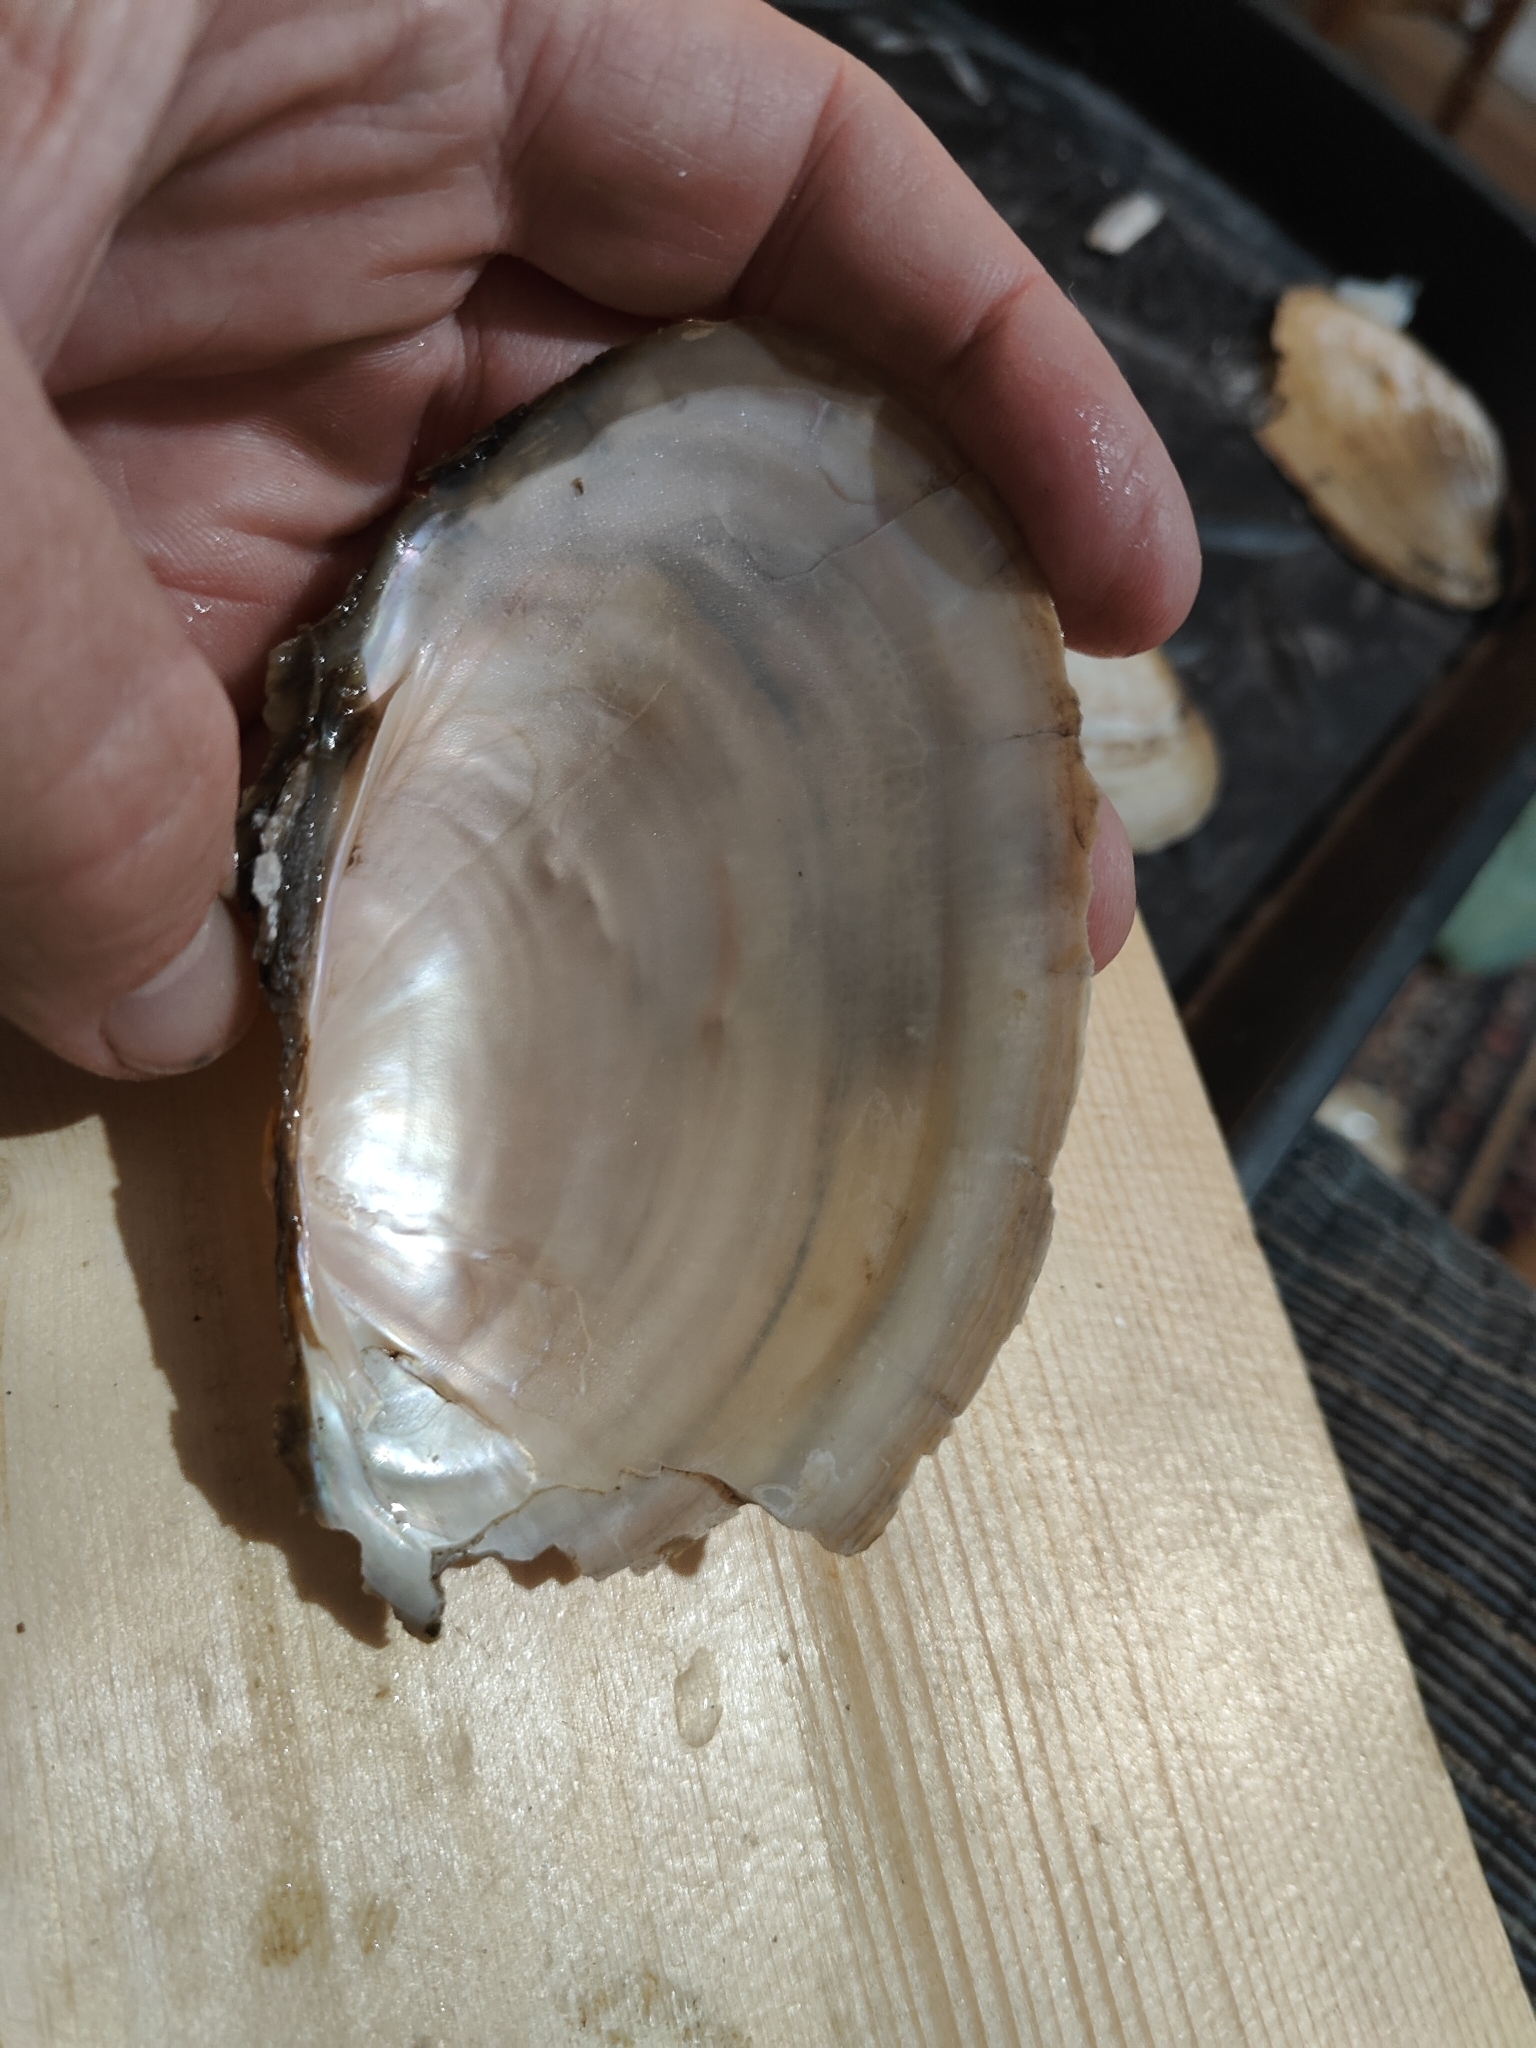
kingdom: Animalia
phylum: Mollusca
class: Bivalvia
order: Unionida
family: Unionidae
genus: Potamilus
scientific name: Potamilus fragilis
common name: Fragile papershell
